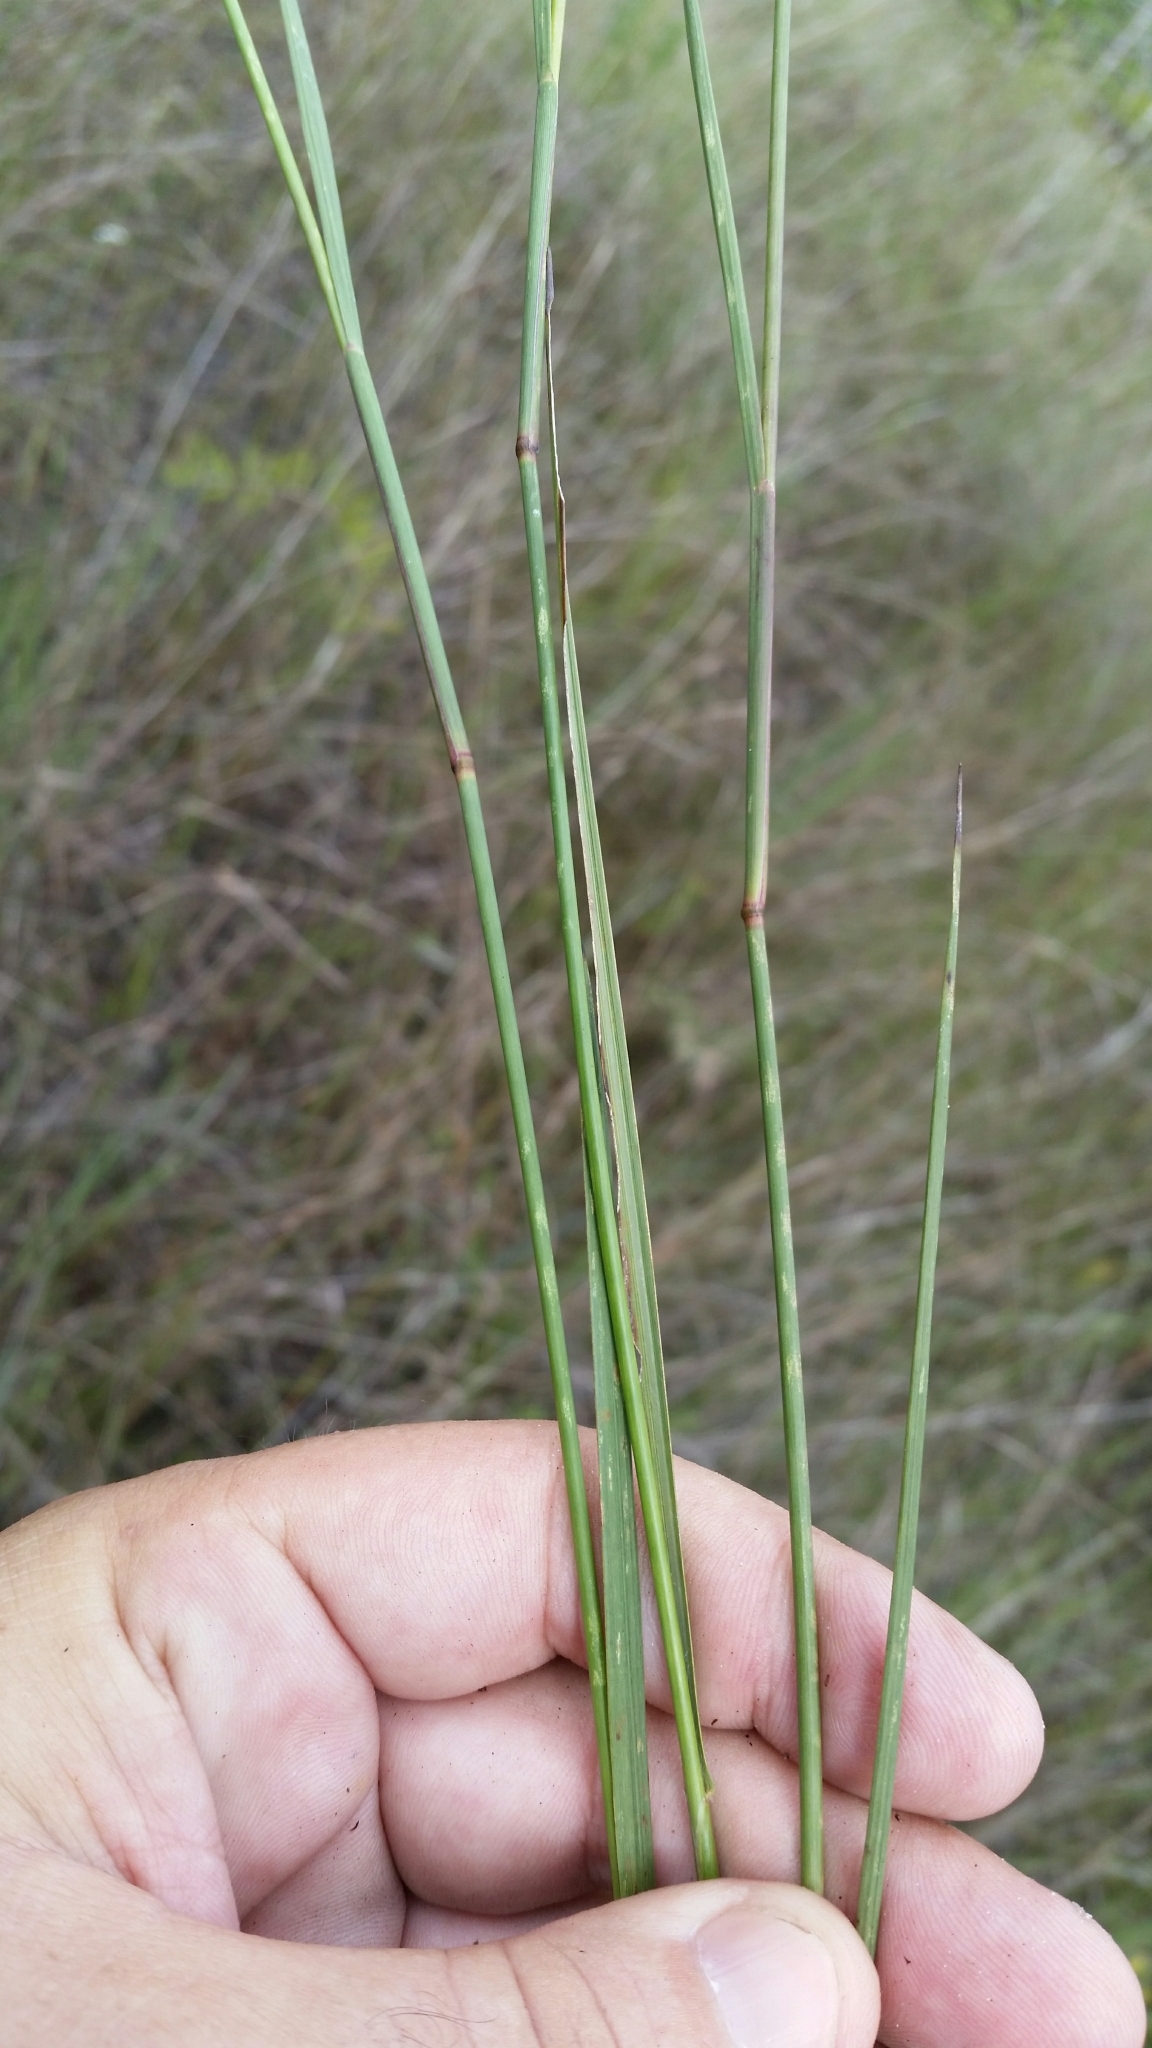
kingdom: Plantae
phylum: Tracheophyta
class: Liliopsida
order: Poales
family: Poaceae
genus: Coleataenia
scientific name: Coleataenia tenera
